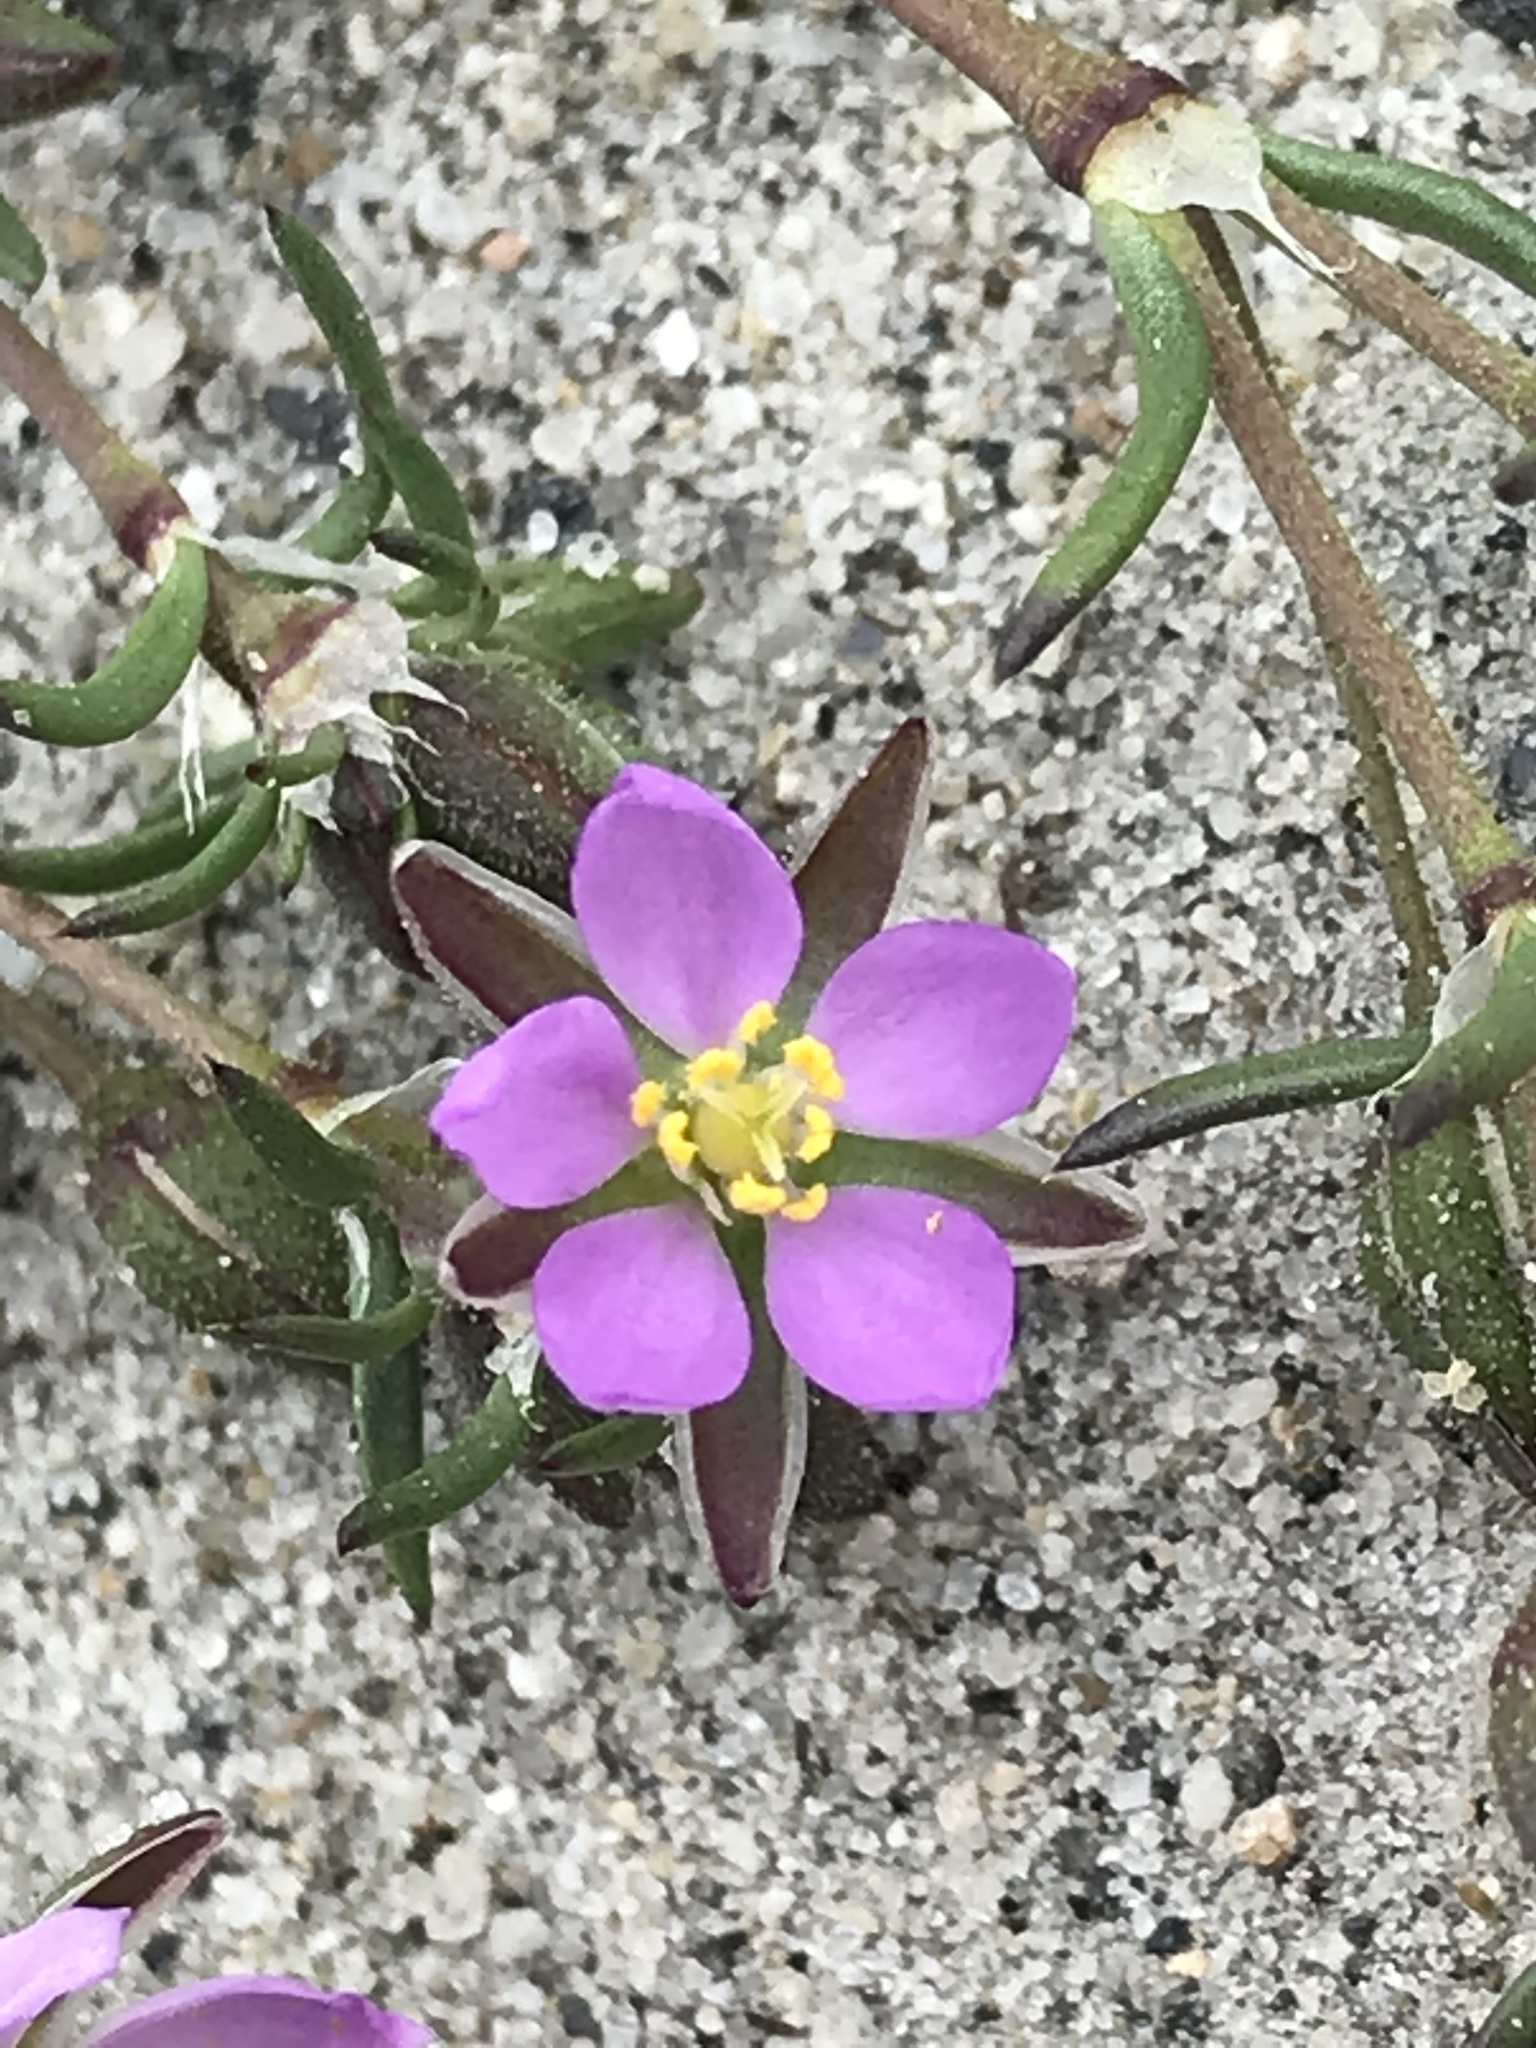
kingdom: Plantae
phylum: Tracheophyta
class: Magnoliopsida
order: Caryophyllales
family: Caryophyllaceae
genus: Spergularia
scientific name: Spergularia rubra
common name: Red sand-spurrey
